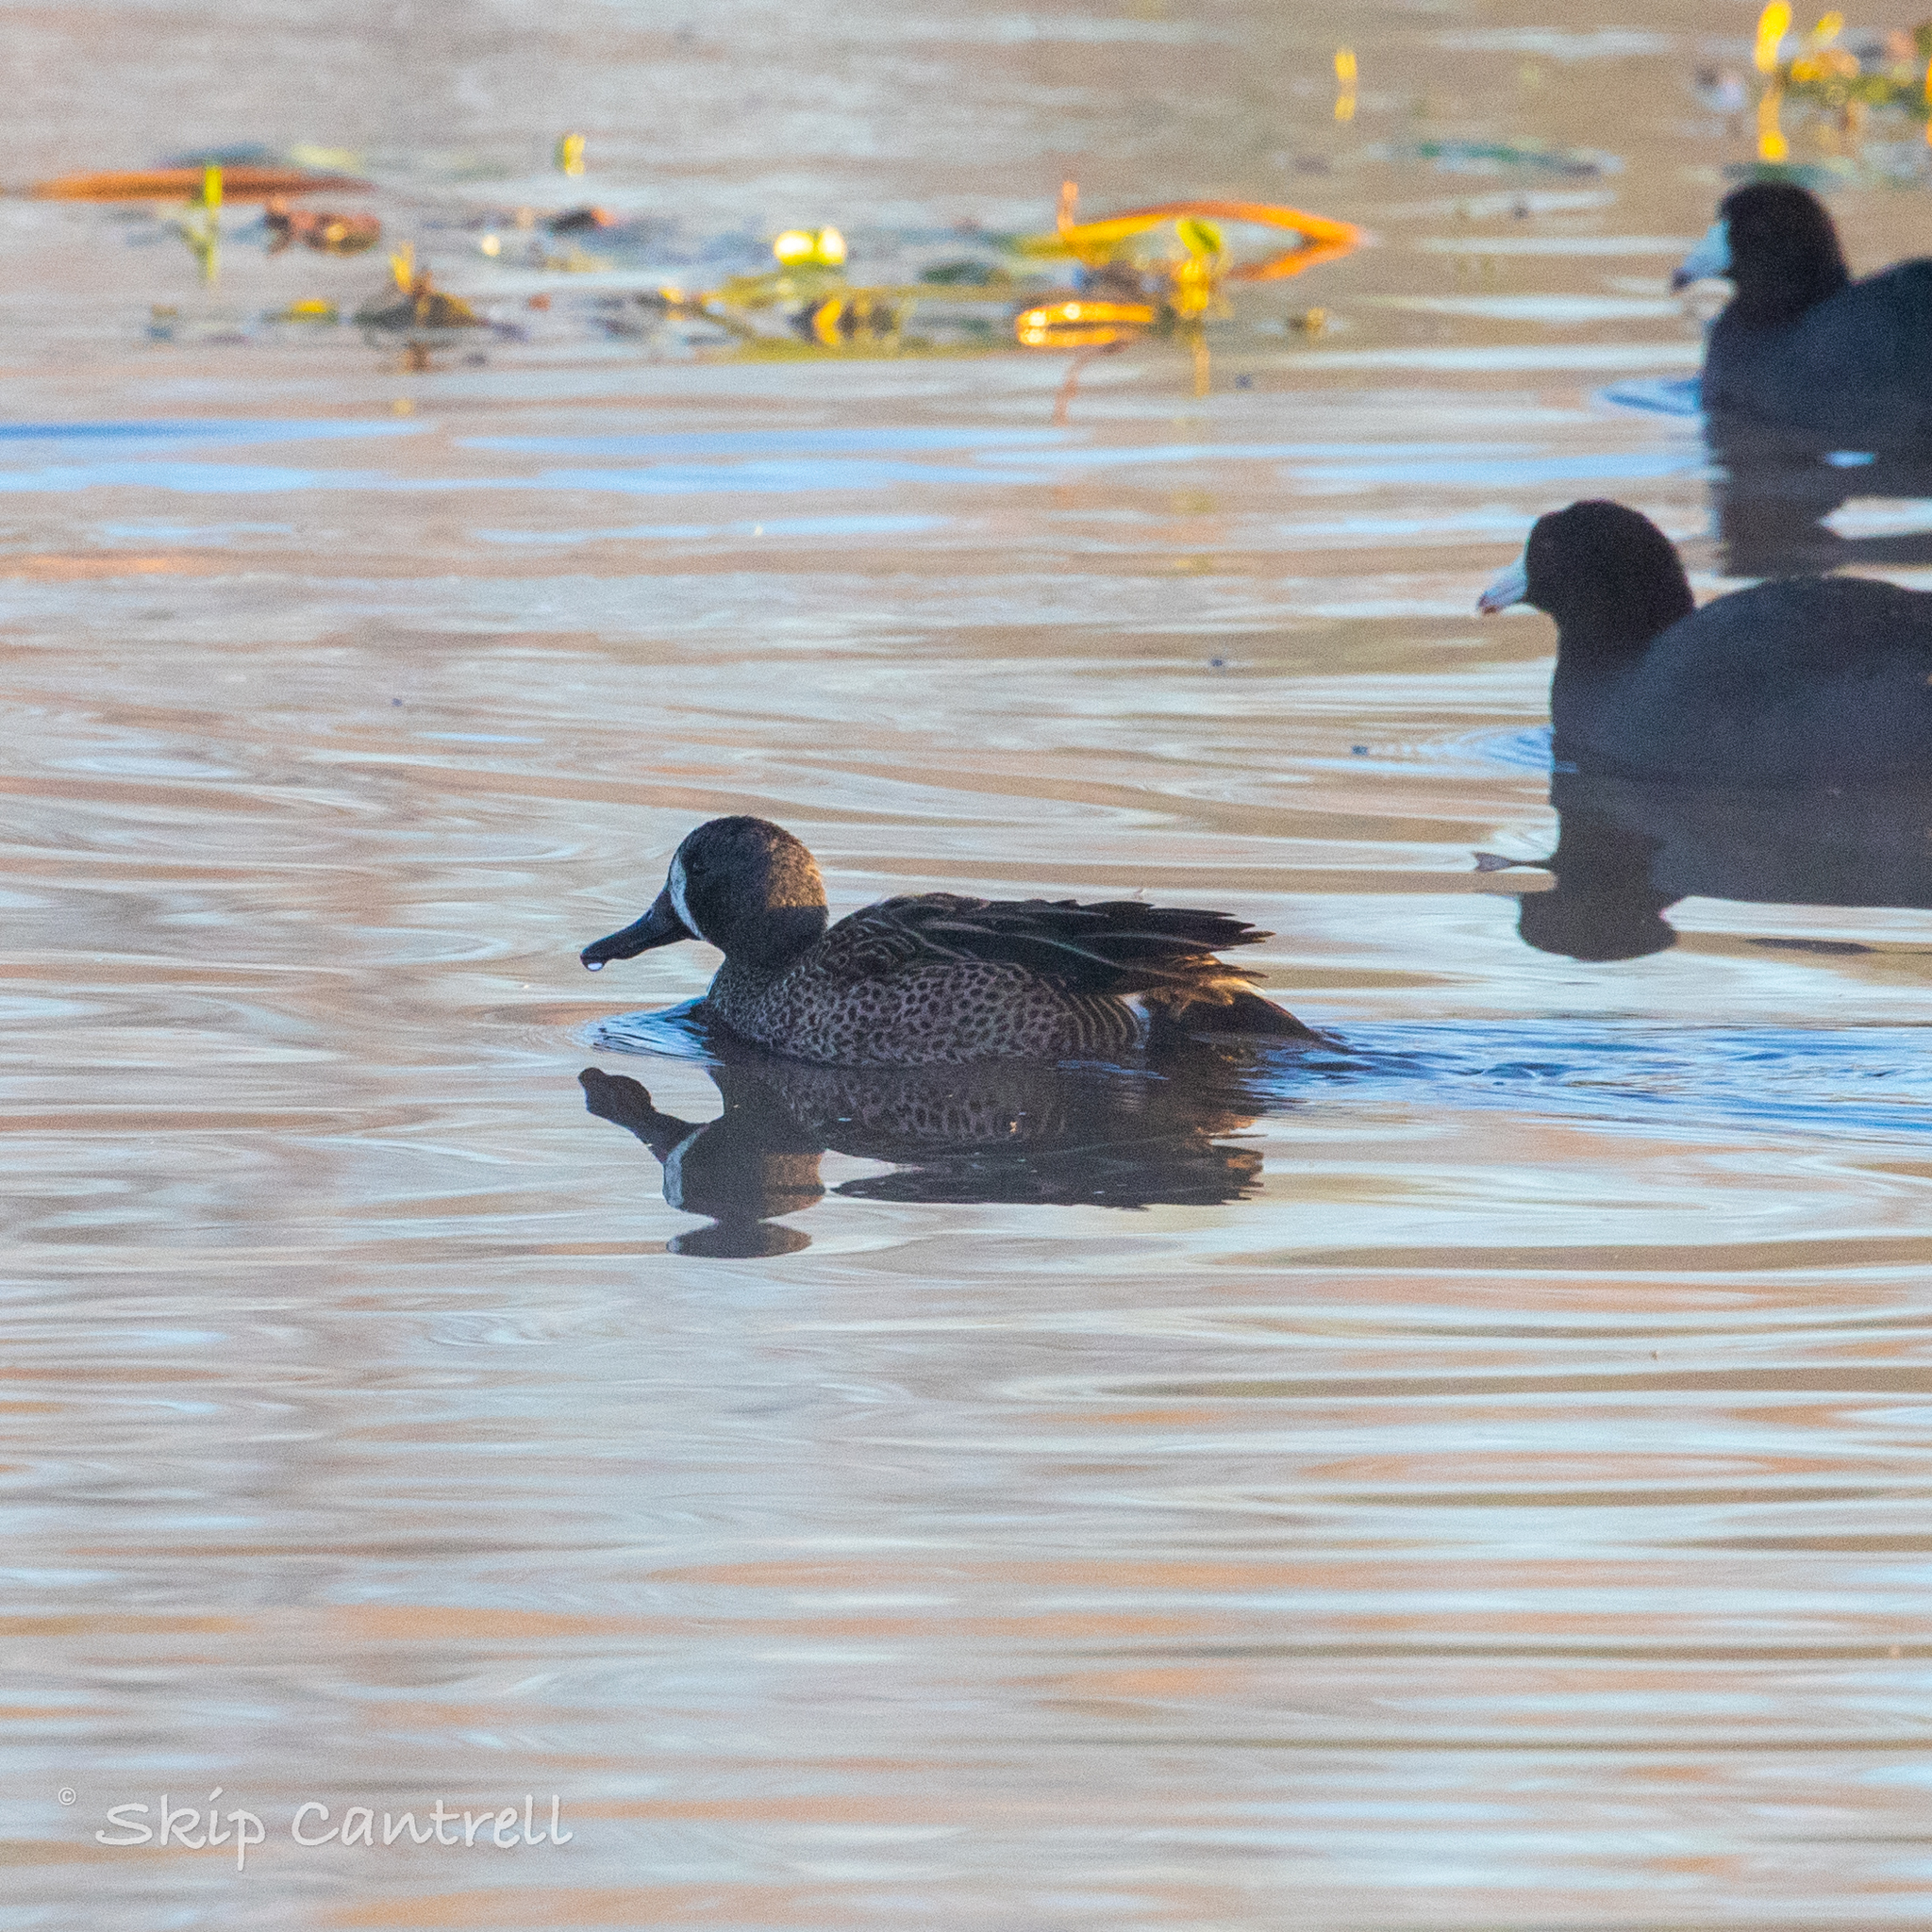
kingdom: Animalia
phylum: Chordata
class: Aves
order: Anseriformes
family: Anatidae
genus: Spatula
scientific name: Spatula discors
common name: Blue-winged teal
